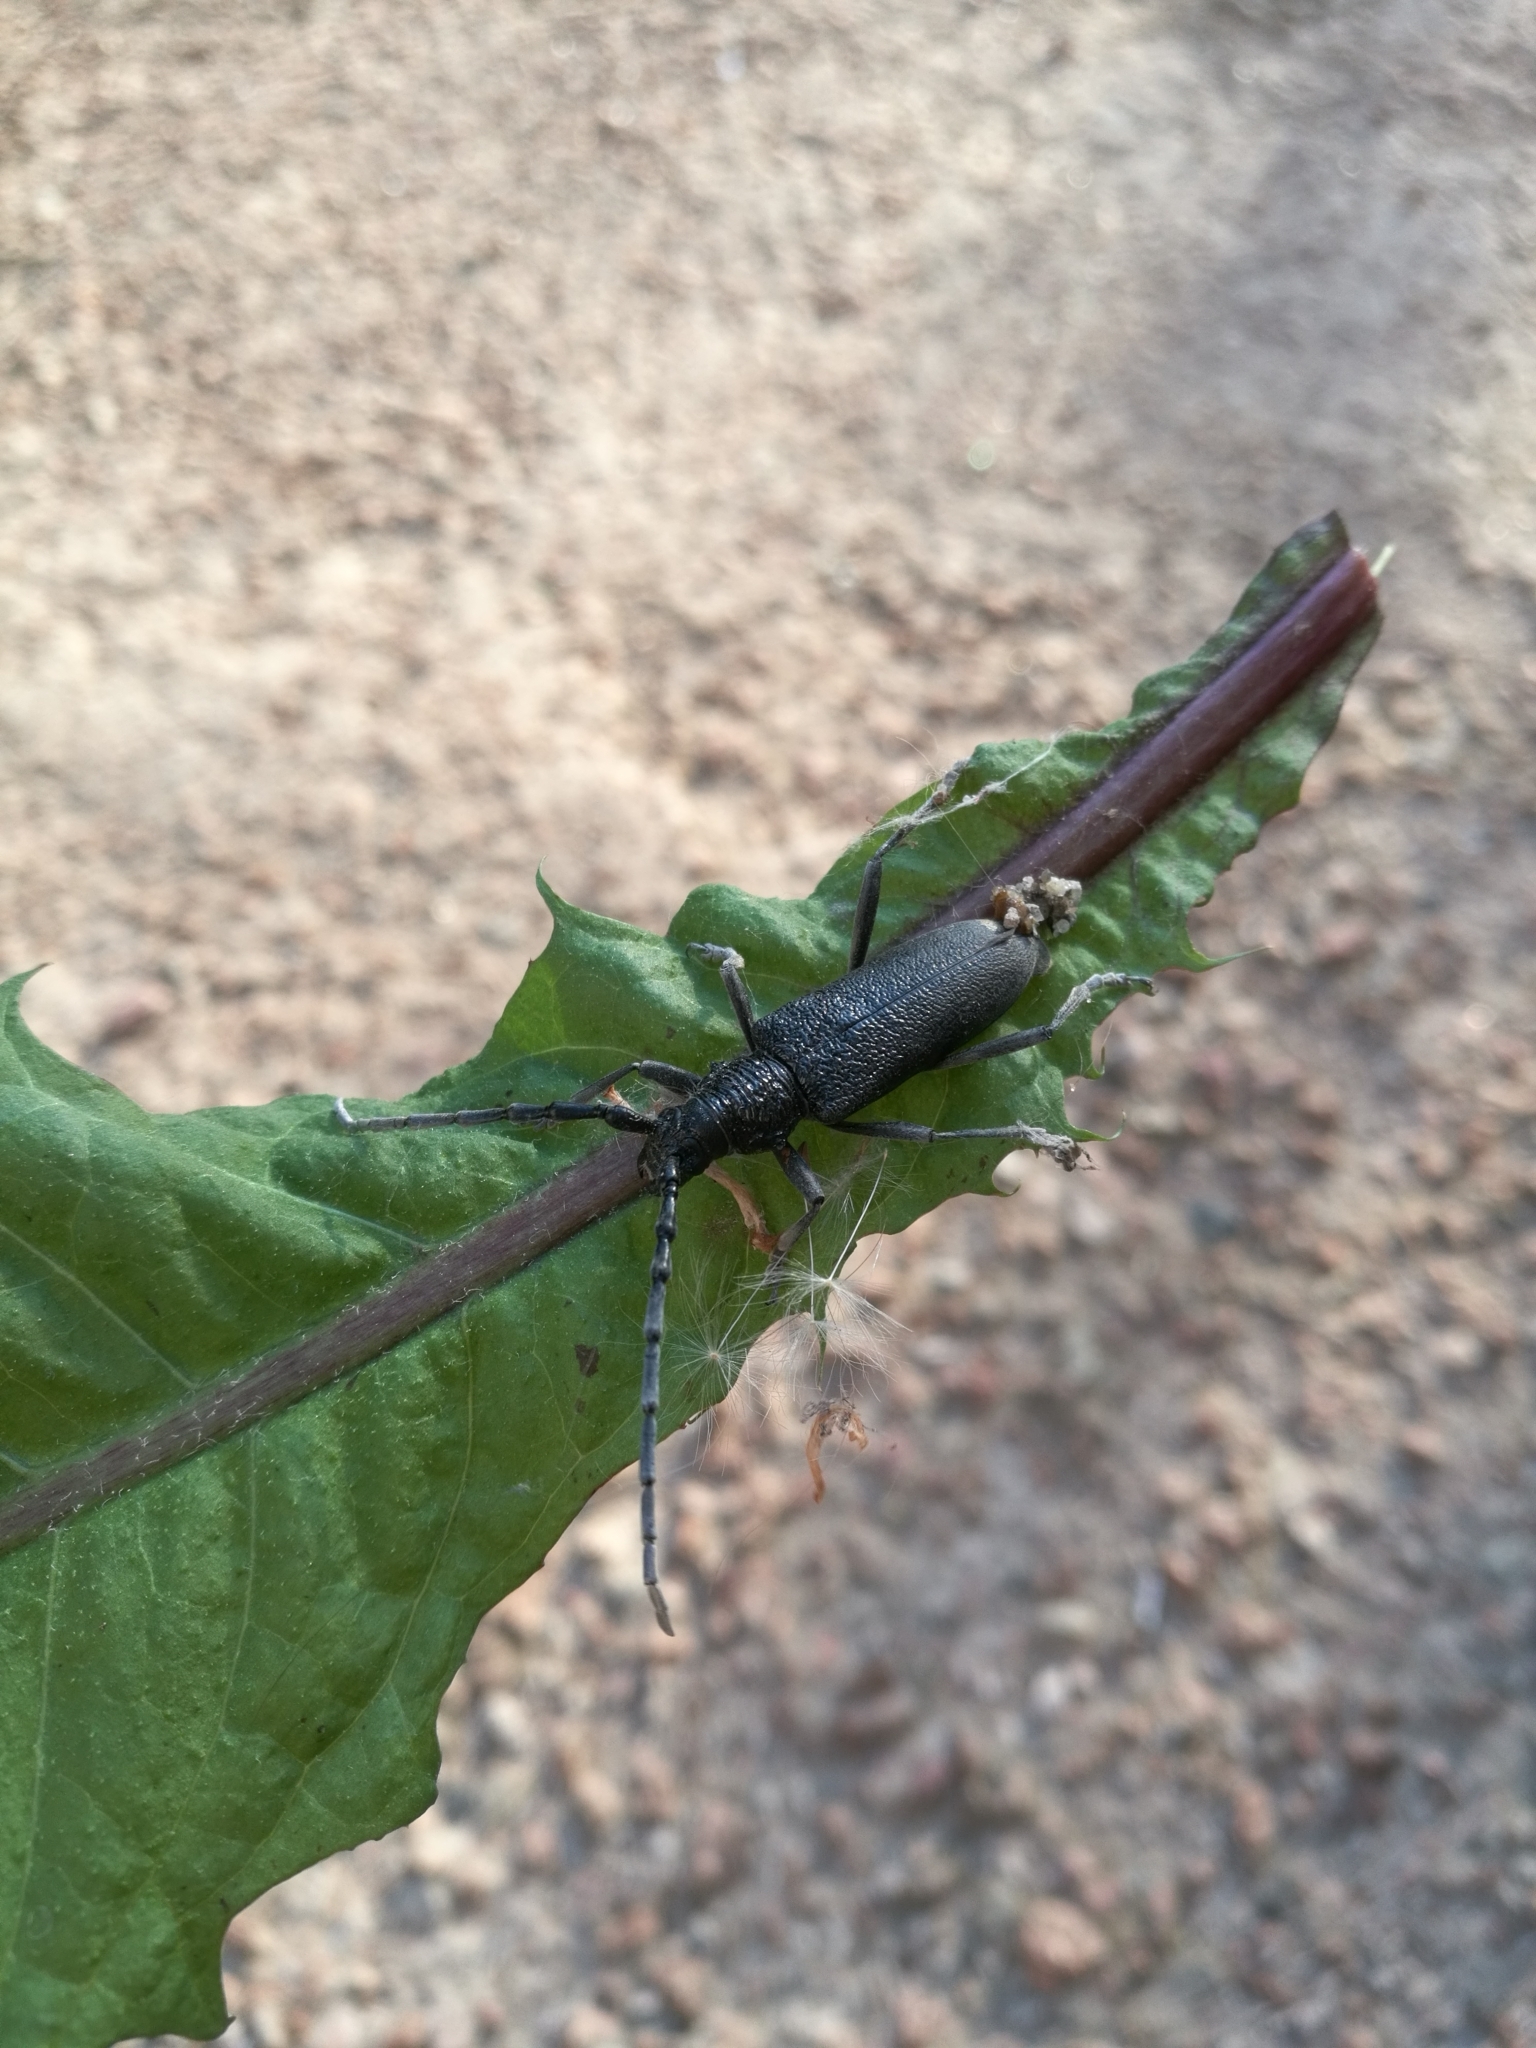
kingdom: Animalia
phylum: Arthropoda
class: Insecta
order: Coleoptera
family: Cerambycidae
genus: Cerambyx
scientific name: Cerambyx scopolii
